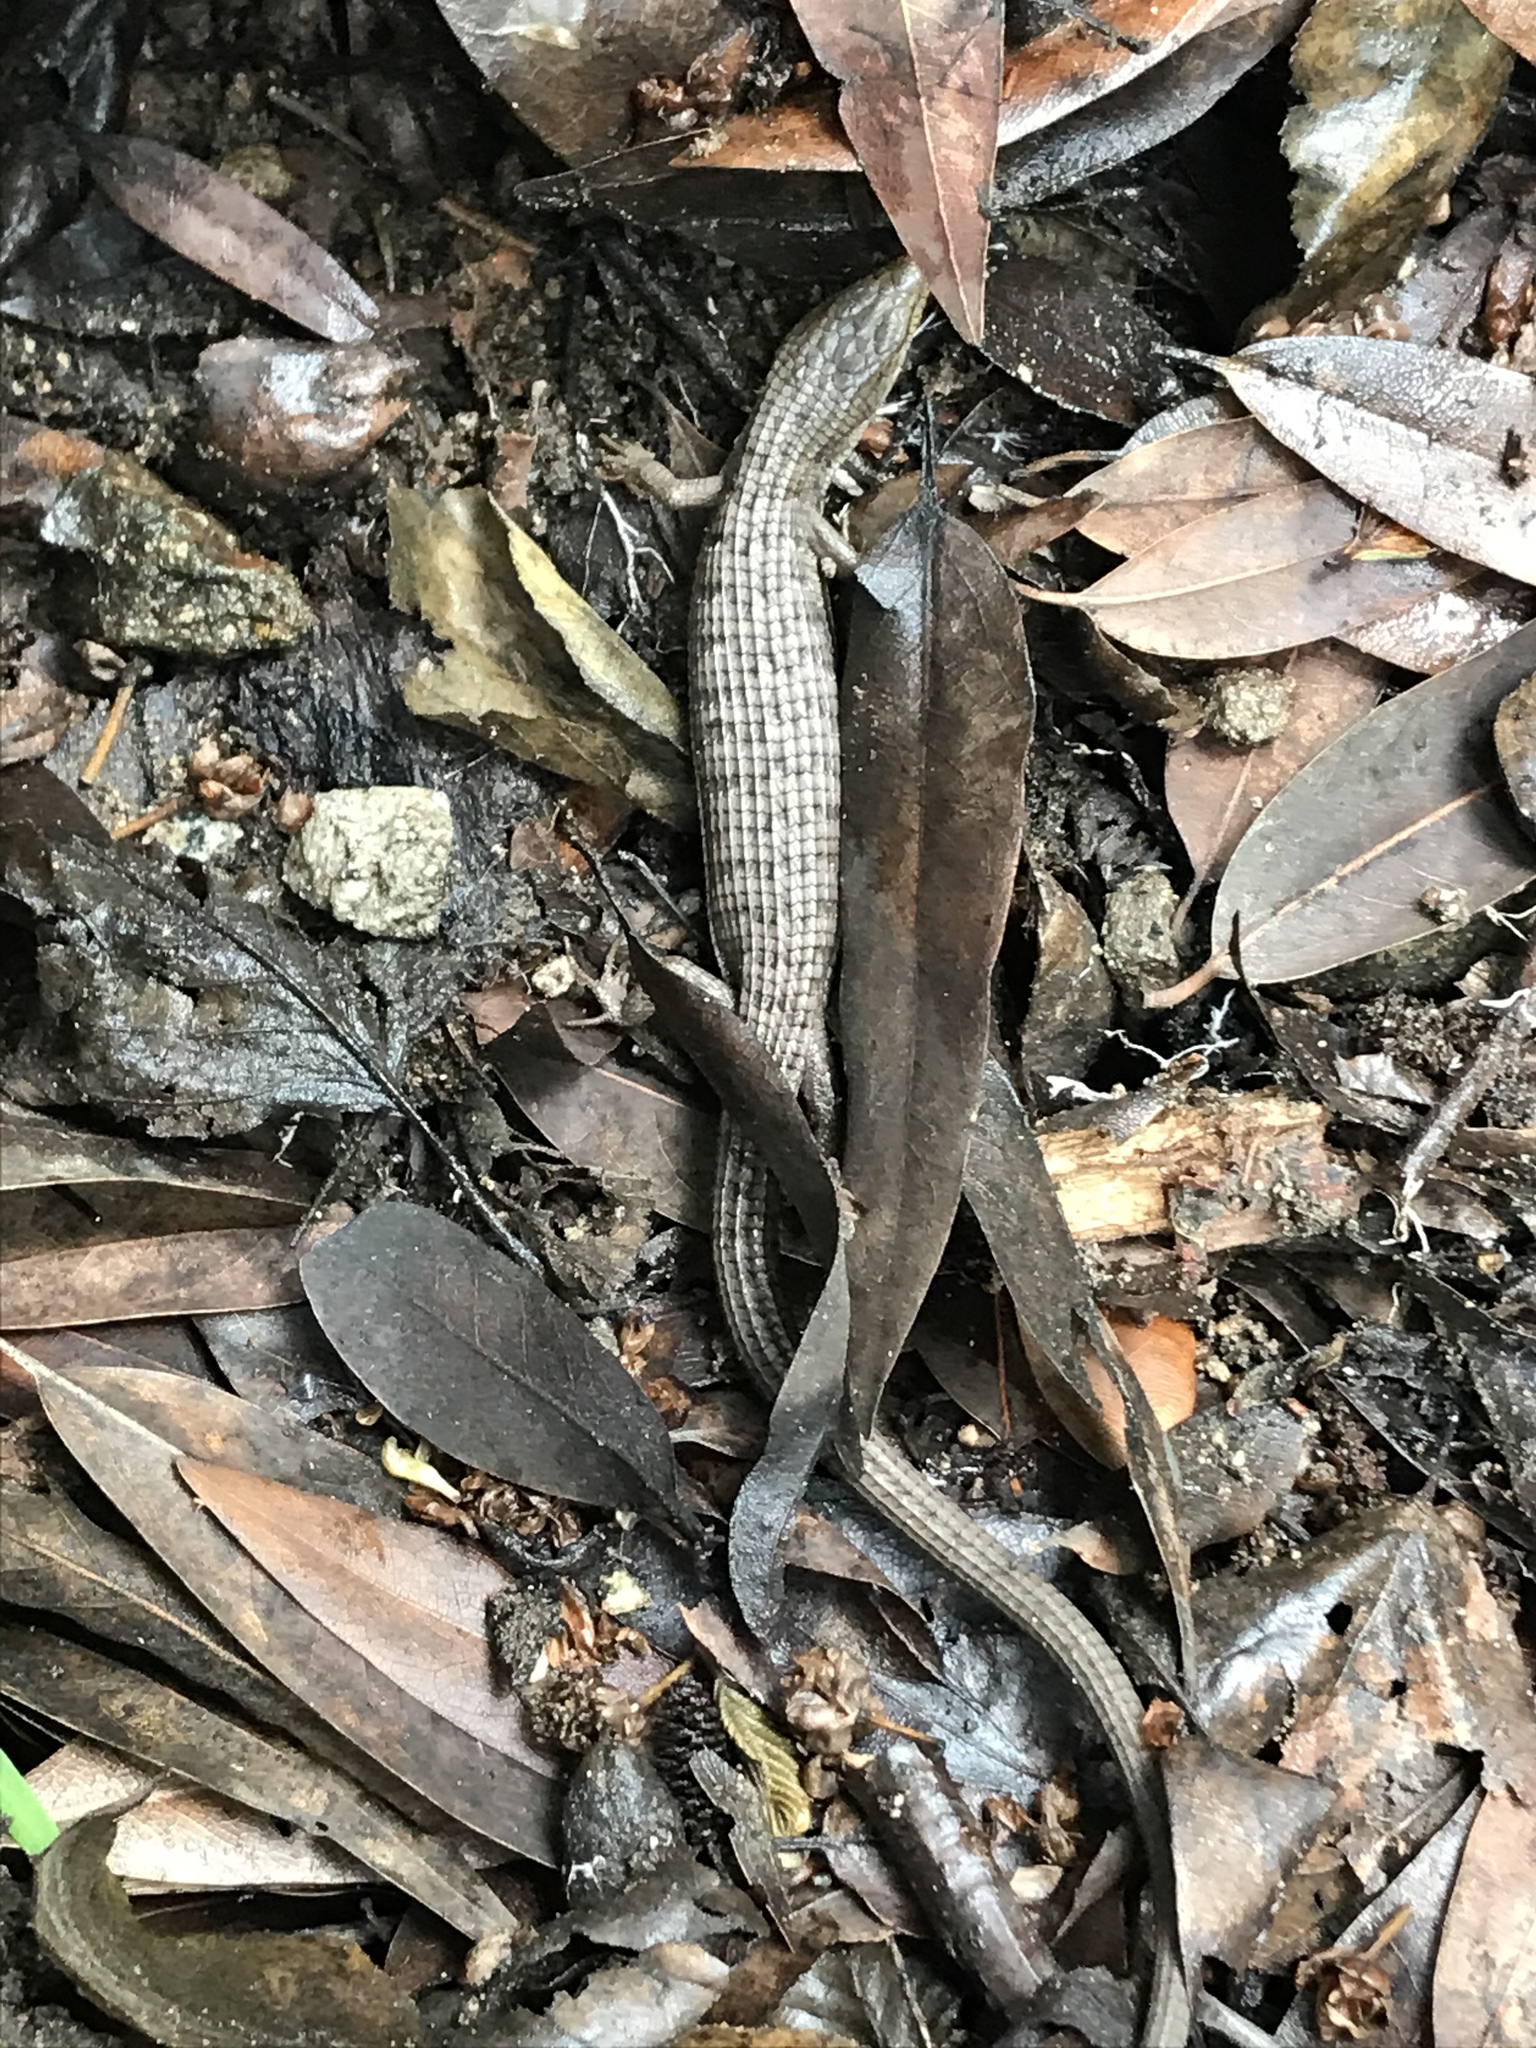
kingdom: Animalia
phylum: Chordata
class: Squamata
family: Anguidae
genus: Elgaria
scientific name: Elgaria multicarinata
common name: Southern alligator lizard
